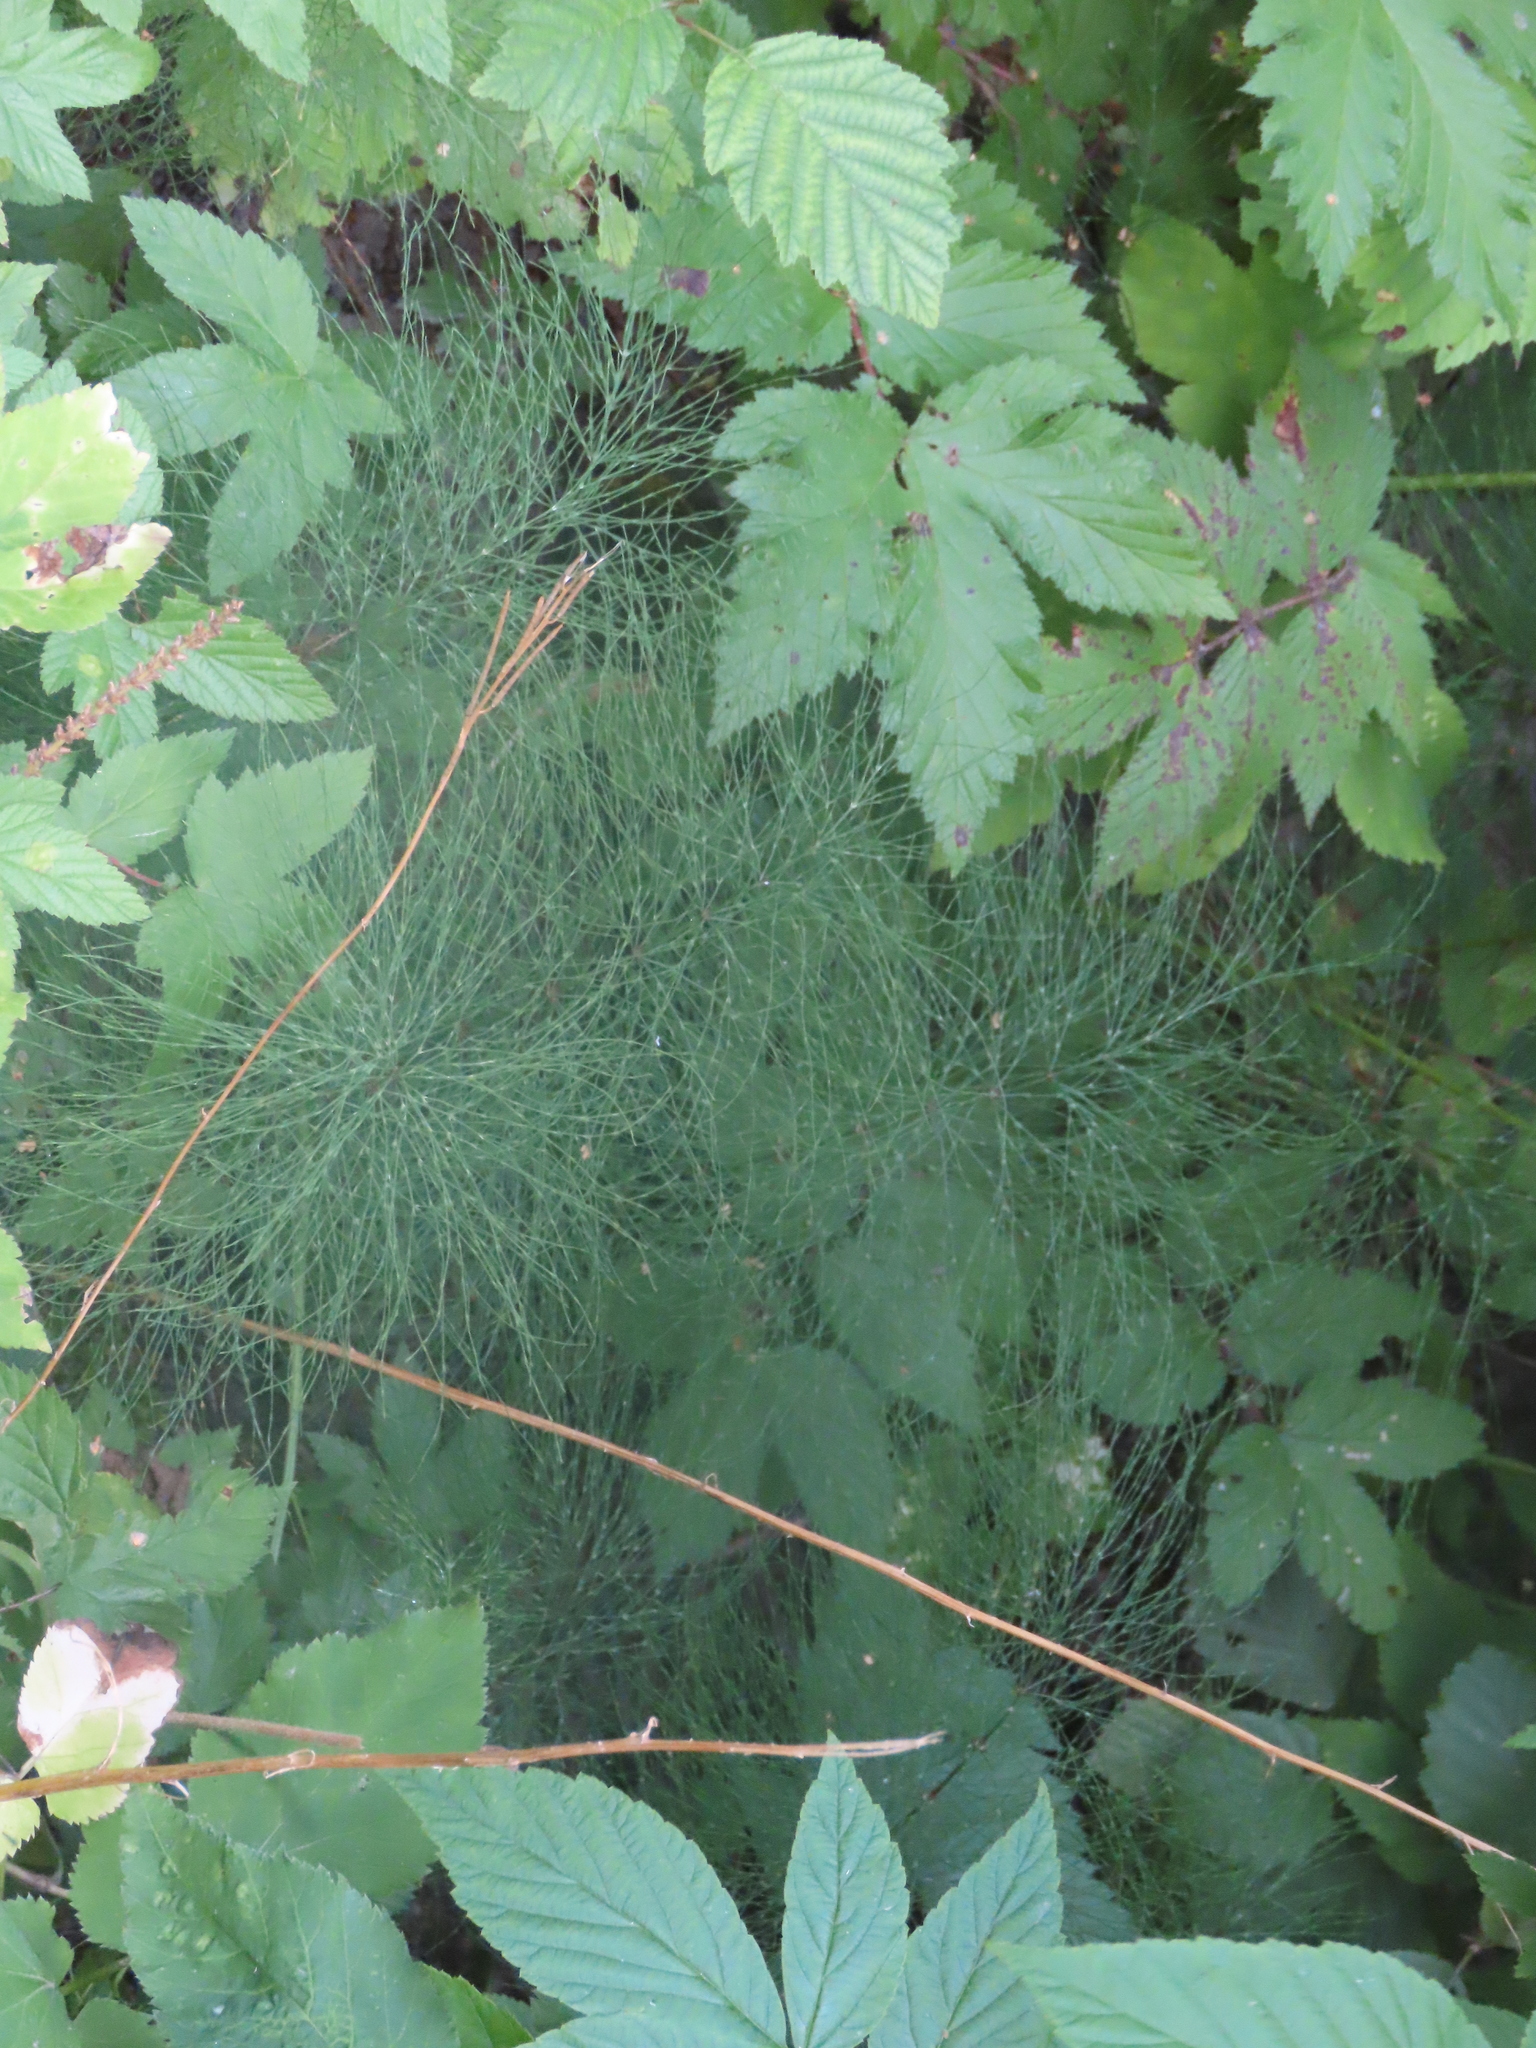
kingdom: Plantae
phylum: Tracheophyta
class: Polypodiopsida
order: Equisetales
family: Equisetaceae
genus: Equisetum
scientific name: Equisetum sylvaticum
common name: Wood horsetail
